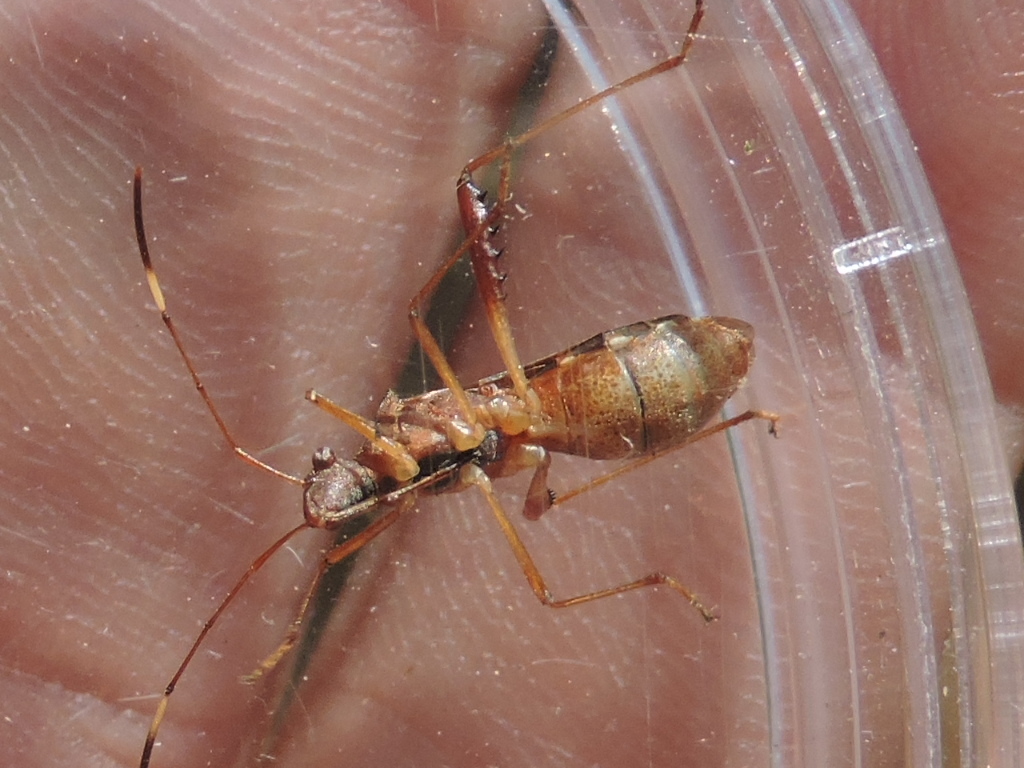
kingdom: Animalia
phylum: Arthropoda
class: Insecta
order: Hemiptera
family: Alydidae
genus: Megalotomus
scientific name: Megalotomus quinquespinosus
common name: Lupine bug
